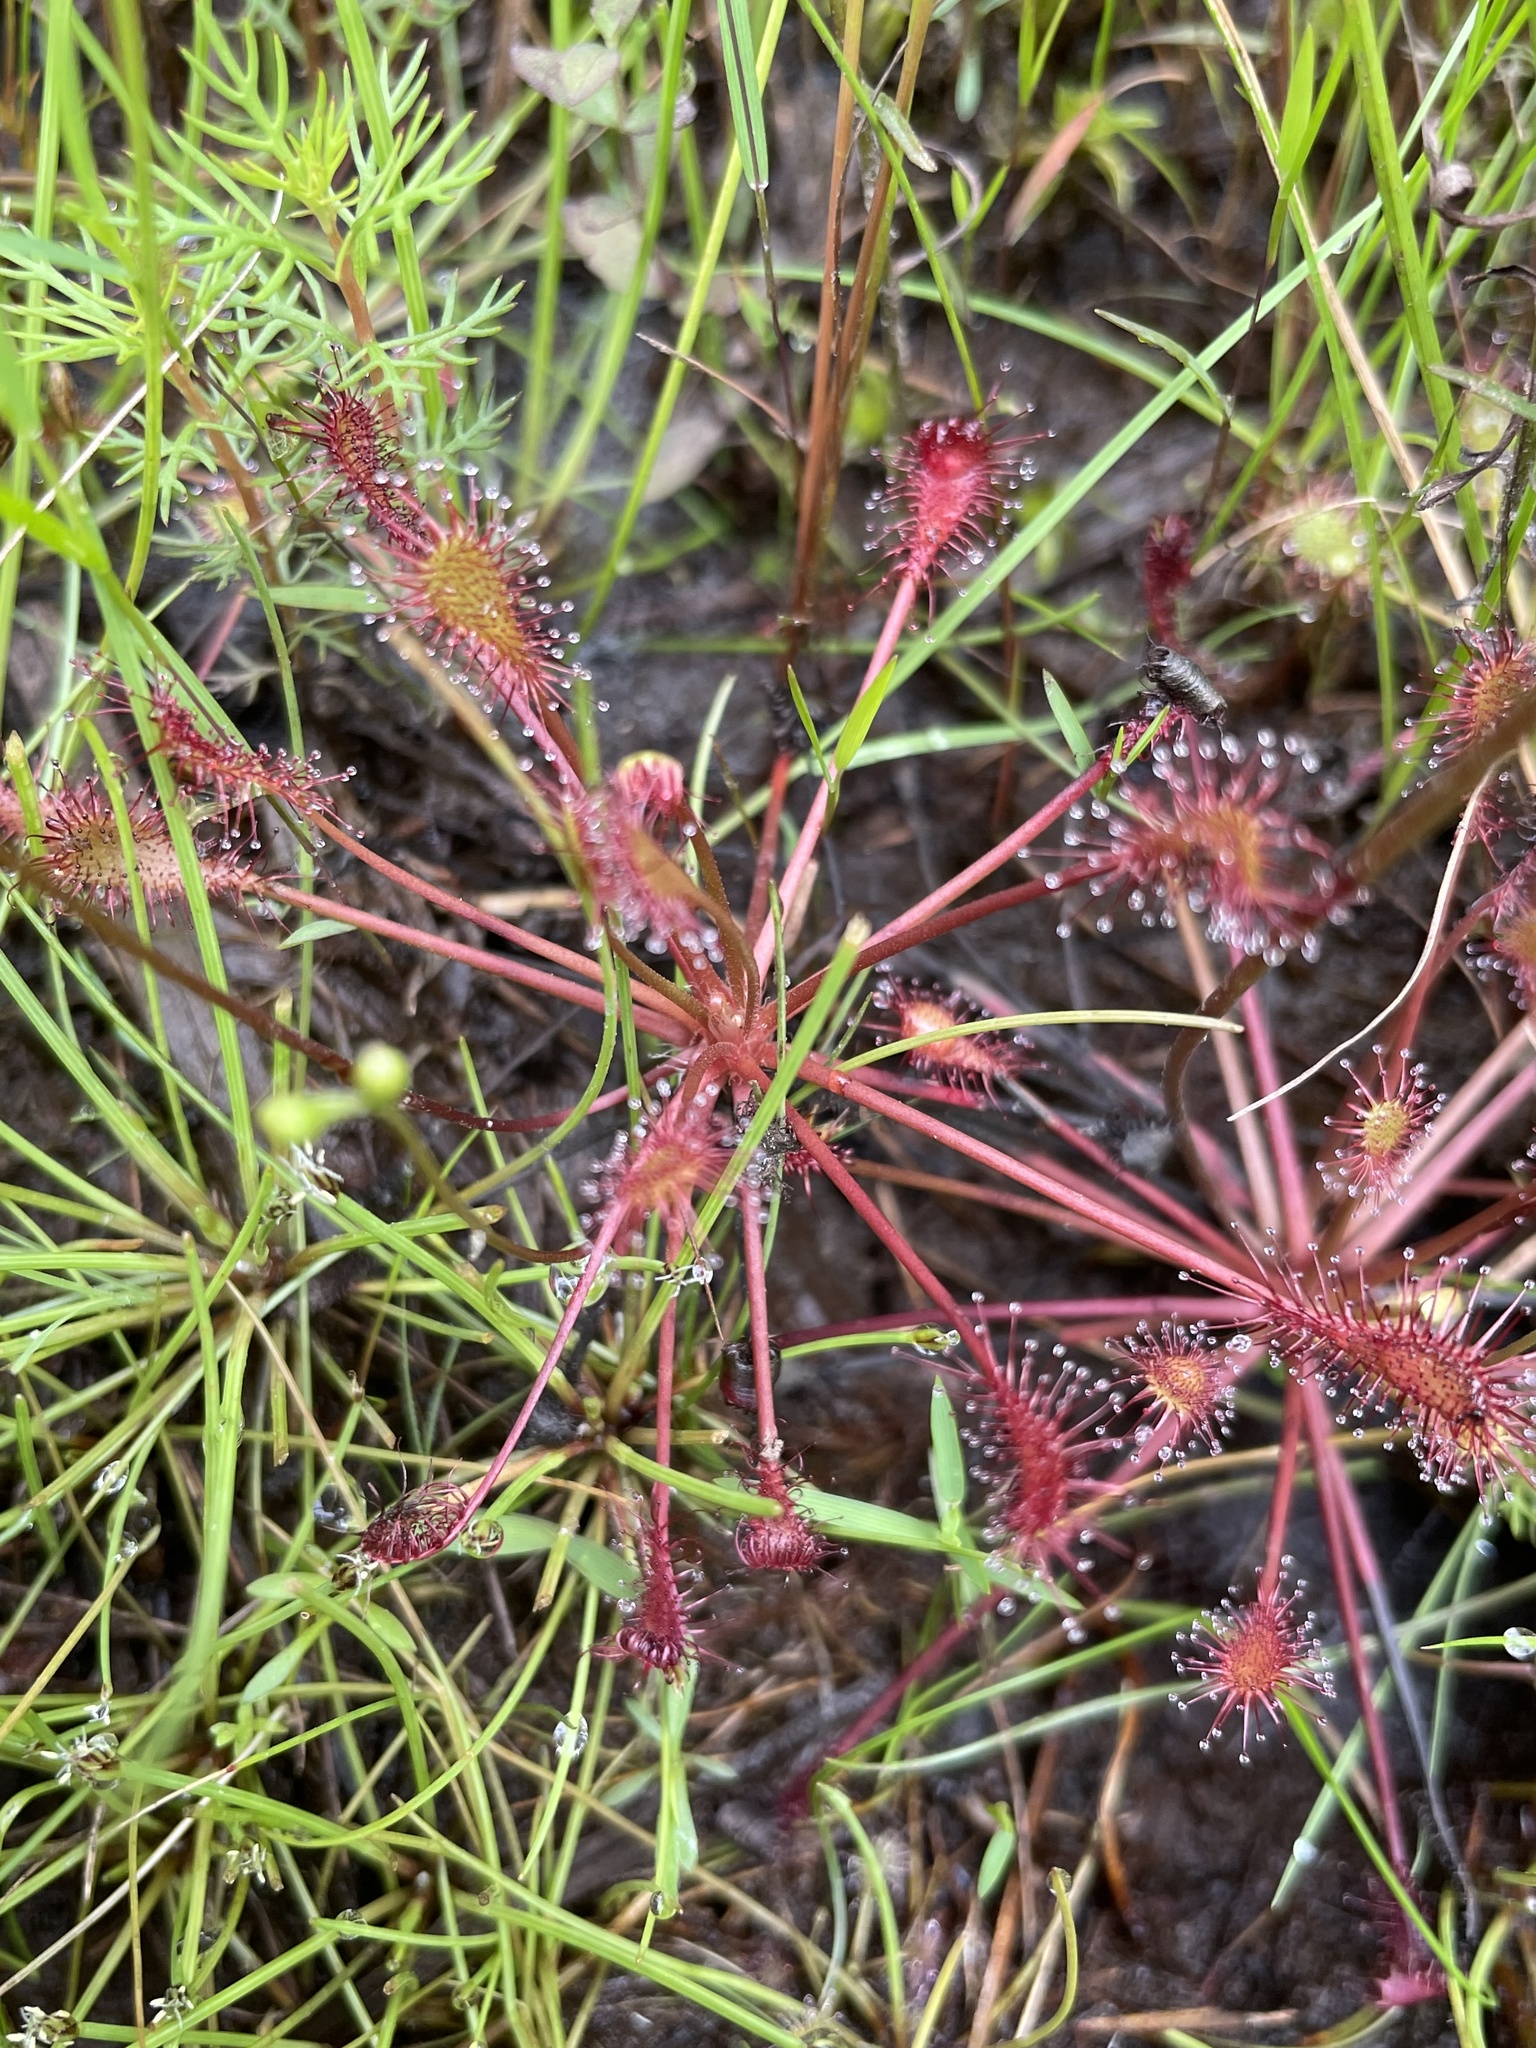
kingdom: Plantae
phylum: Tracheophyta
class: Magnoliopsida
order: Caryophyllales
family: Droseraceae
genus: Drosera
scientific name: Drosera intermedia
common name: Oblong-leaved sundew
